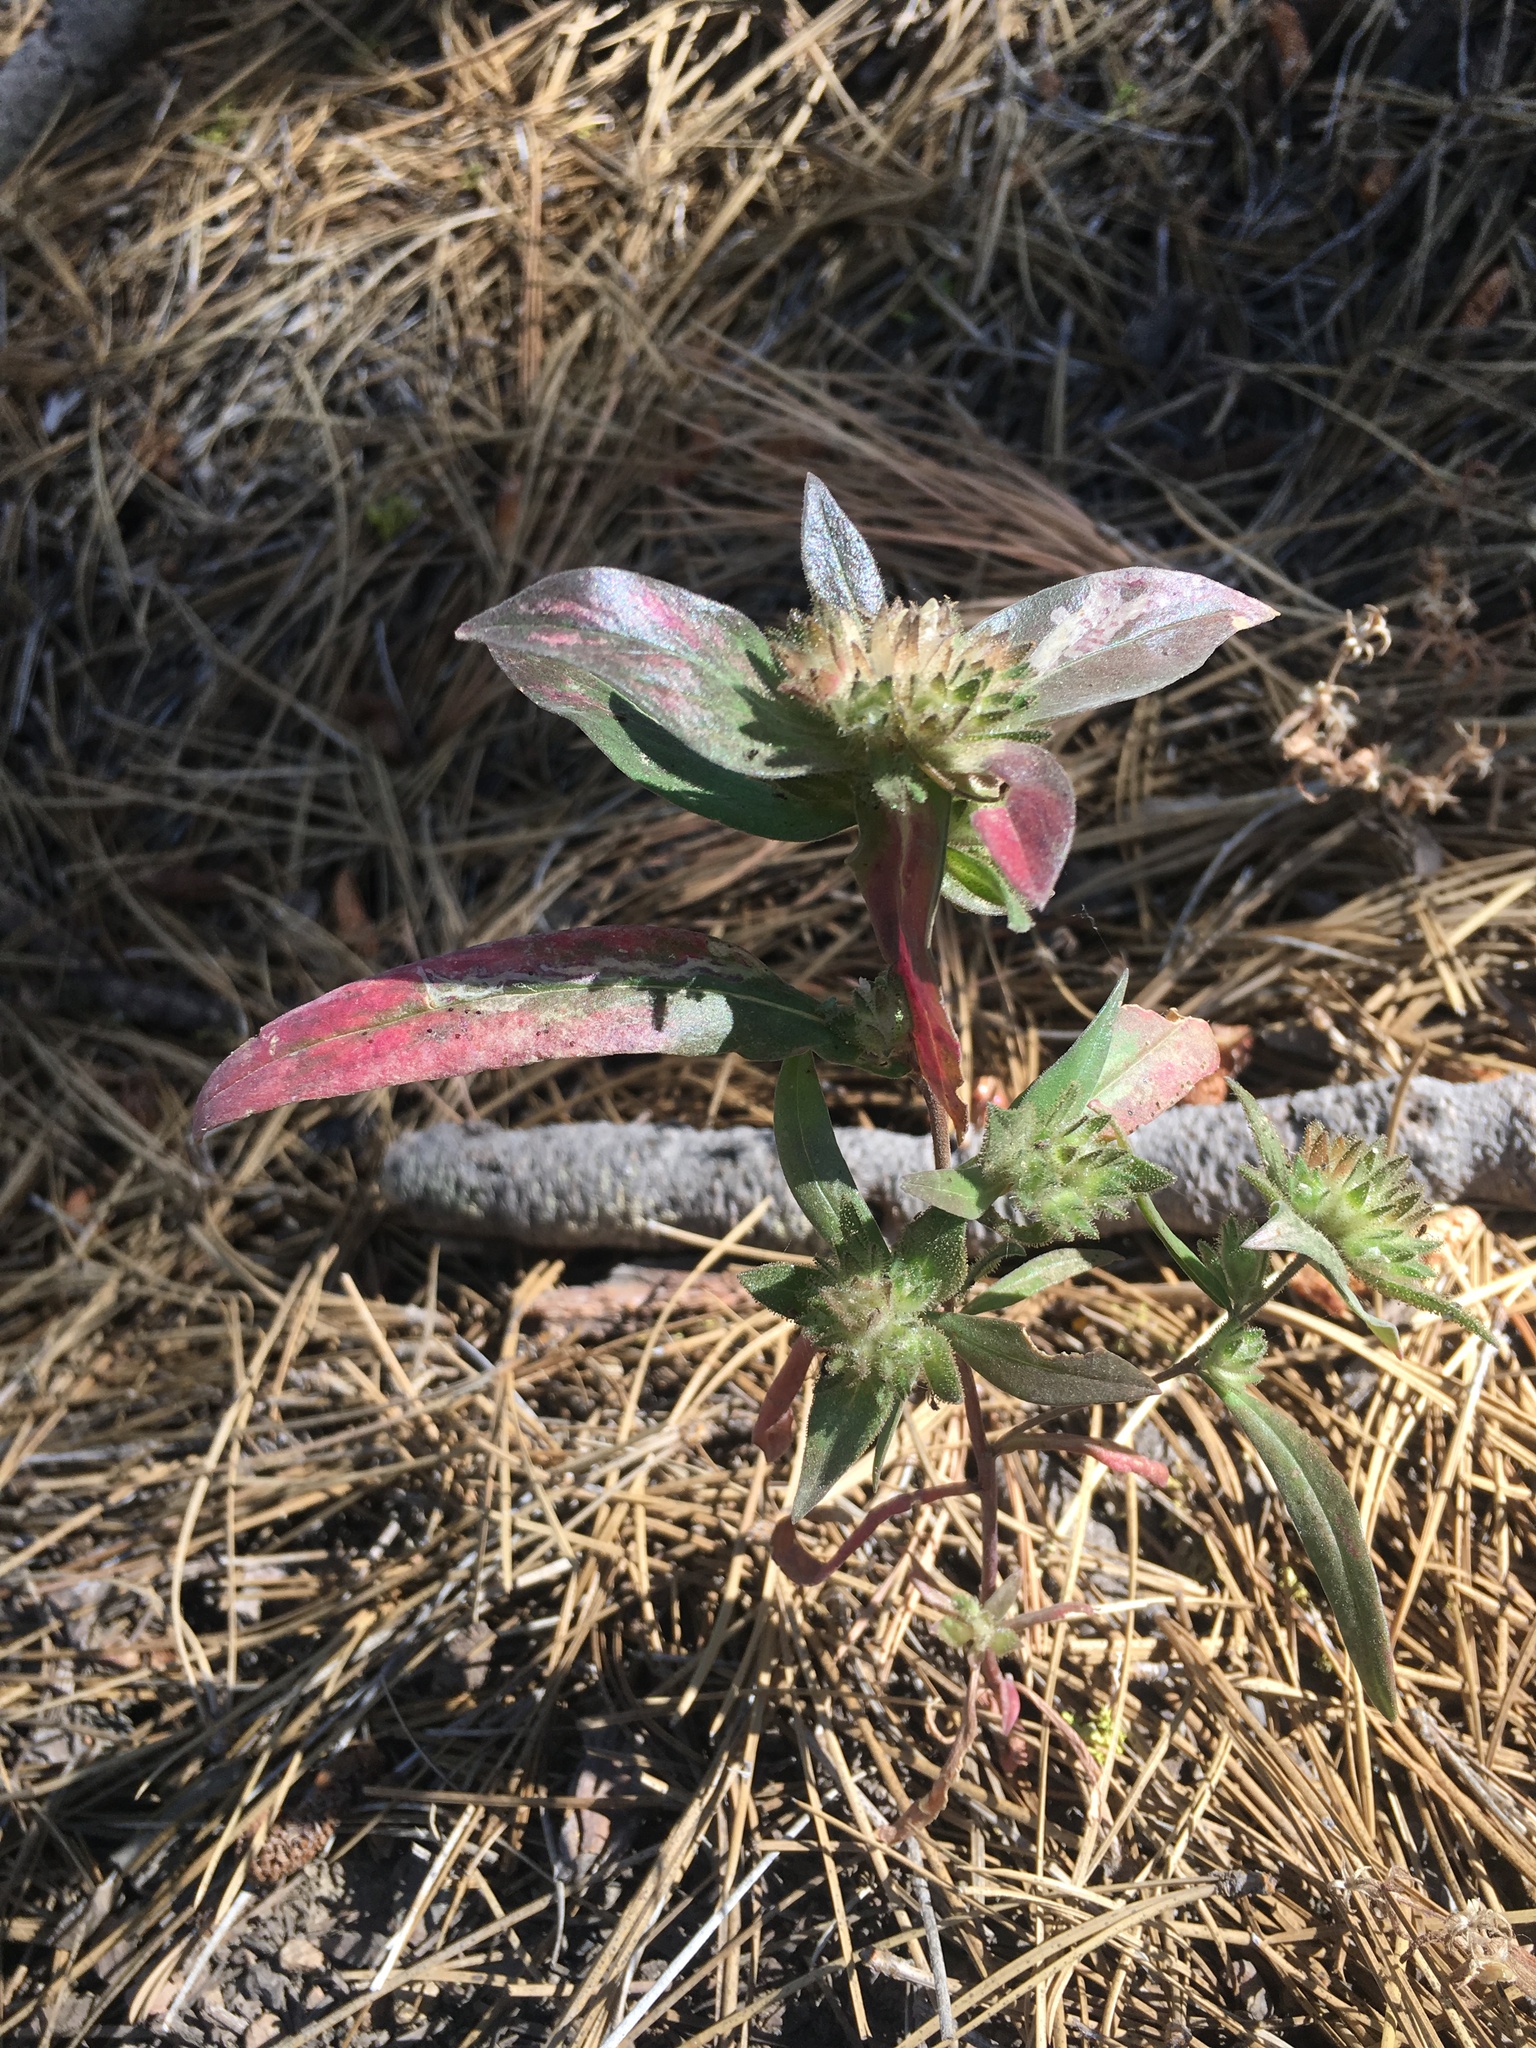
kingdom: Plantae
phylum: Tracheophyta
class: Magnoliopsida
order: Ericales
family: Polemoniaceae
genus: Collomia
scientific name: Collomia grandiflora
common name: California strawflower
